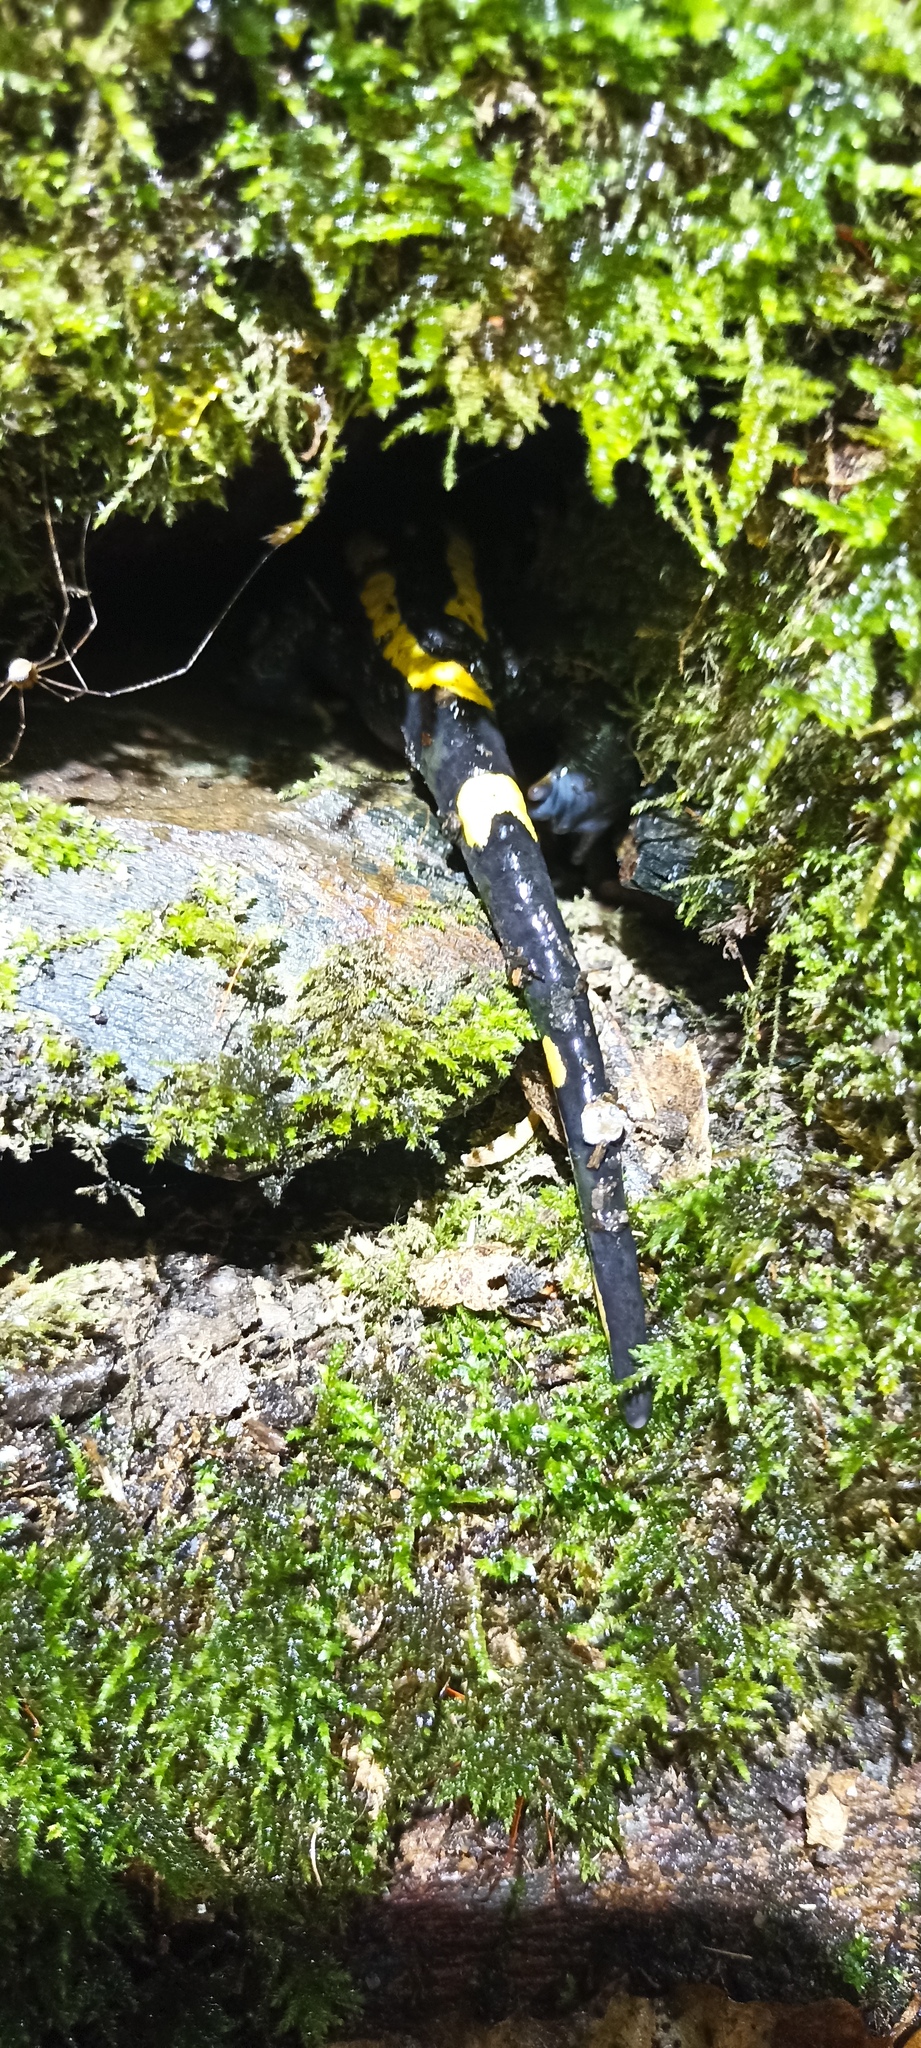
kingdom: Animalia
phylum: Chordata
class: Amphibia
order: Caudata
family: Salamandridae
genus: Salamandra
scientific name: Salamandra salamandra
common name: Fire salamander
